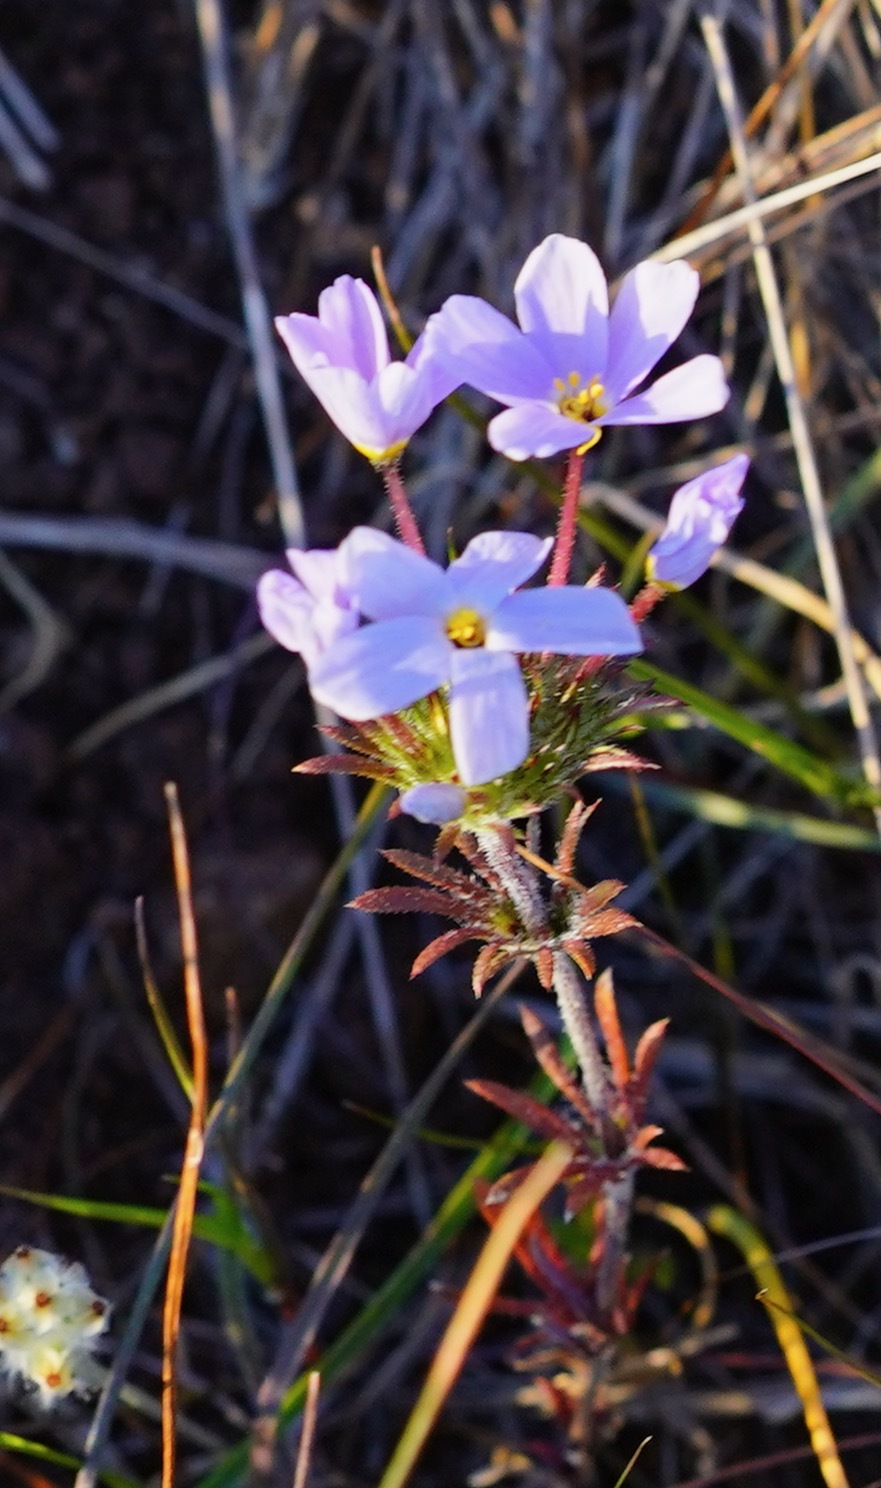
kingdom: Plantae
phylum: Tracheophyta
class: Magnoliopsida
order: Ericales
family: Polemoniaceae
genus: Leptosiphon
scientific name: Leptosiphon androsaceus
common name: False babystars
